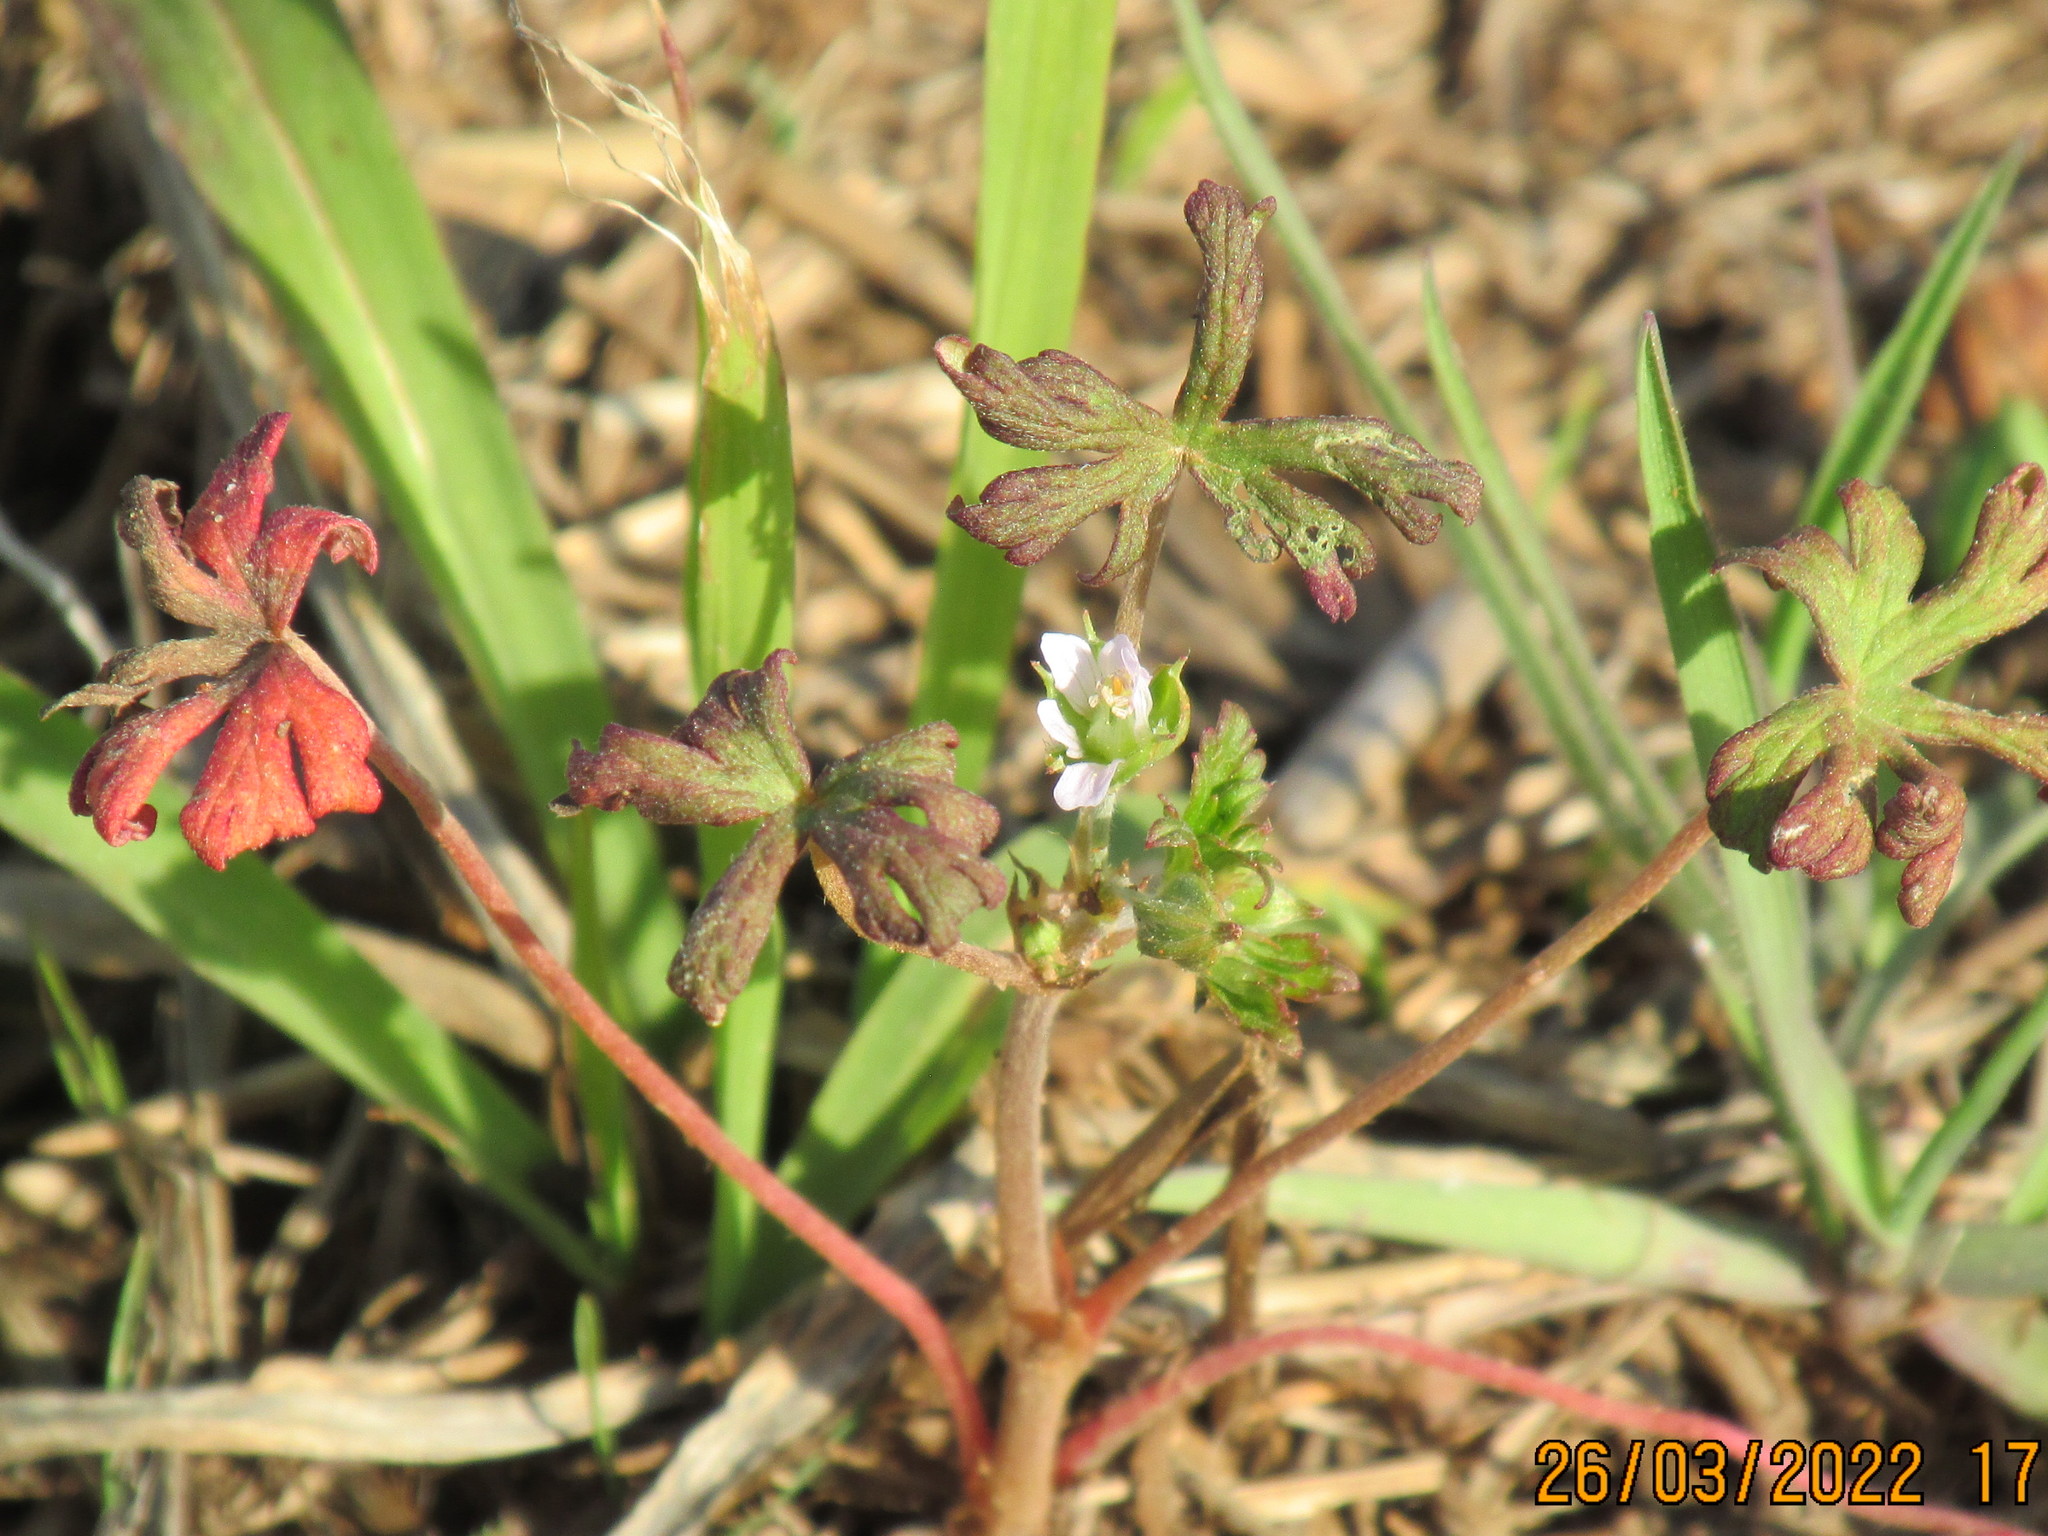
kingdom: Plantae
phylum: Tracheophyta
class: Magnoliopsida
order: Geraniales
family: Geraniaceae
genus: Geranium
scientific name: Geranium carolinianum
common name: Carolina crane's-bill
